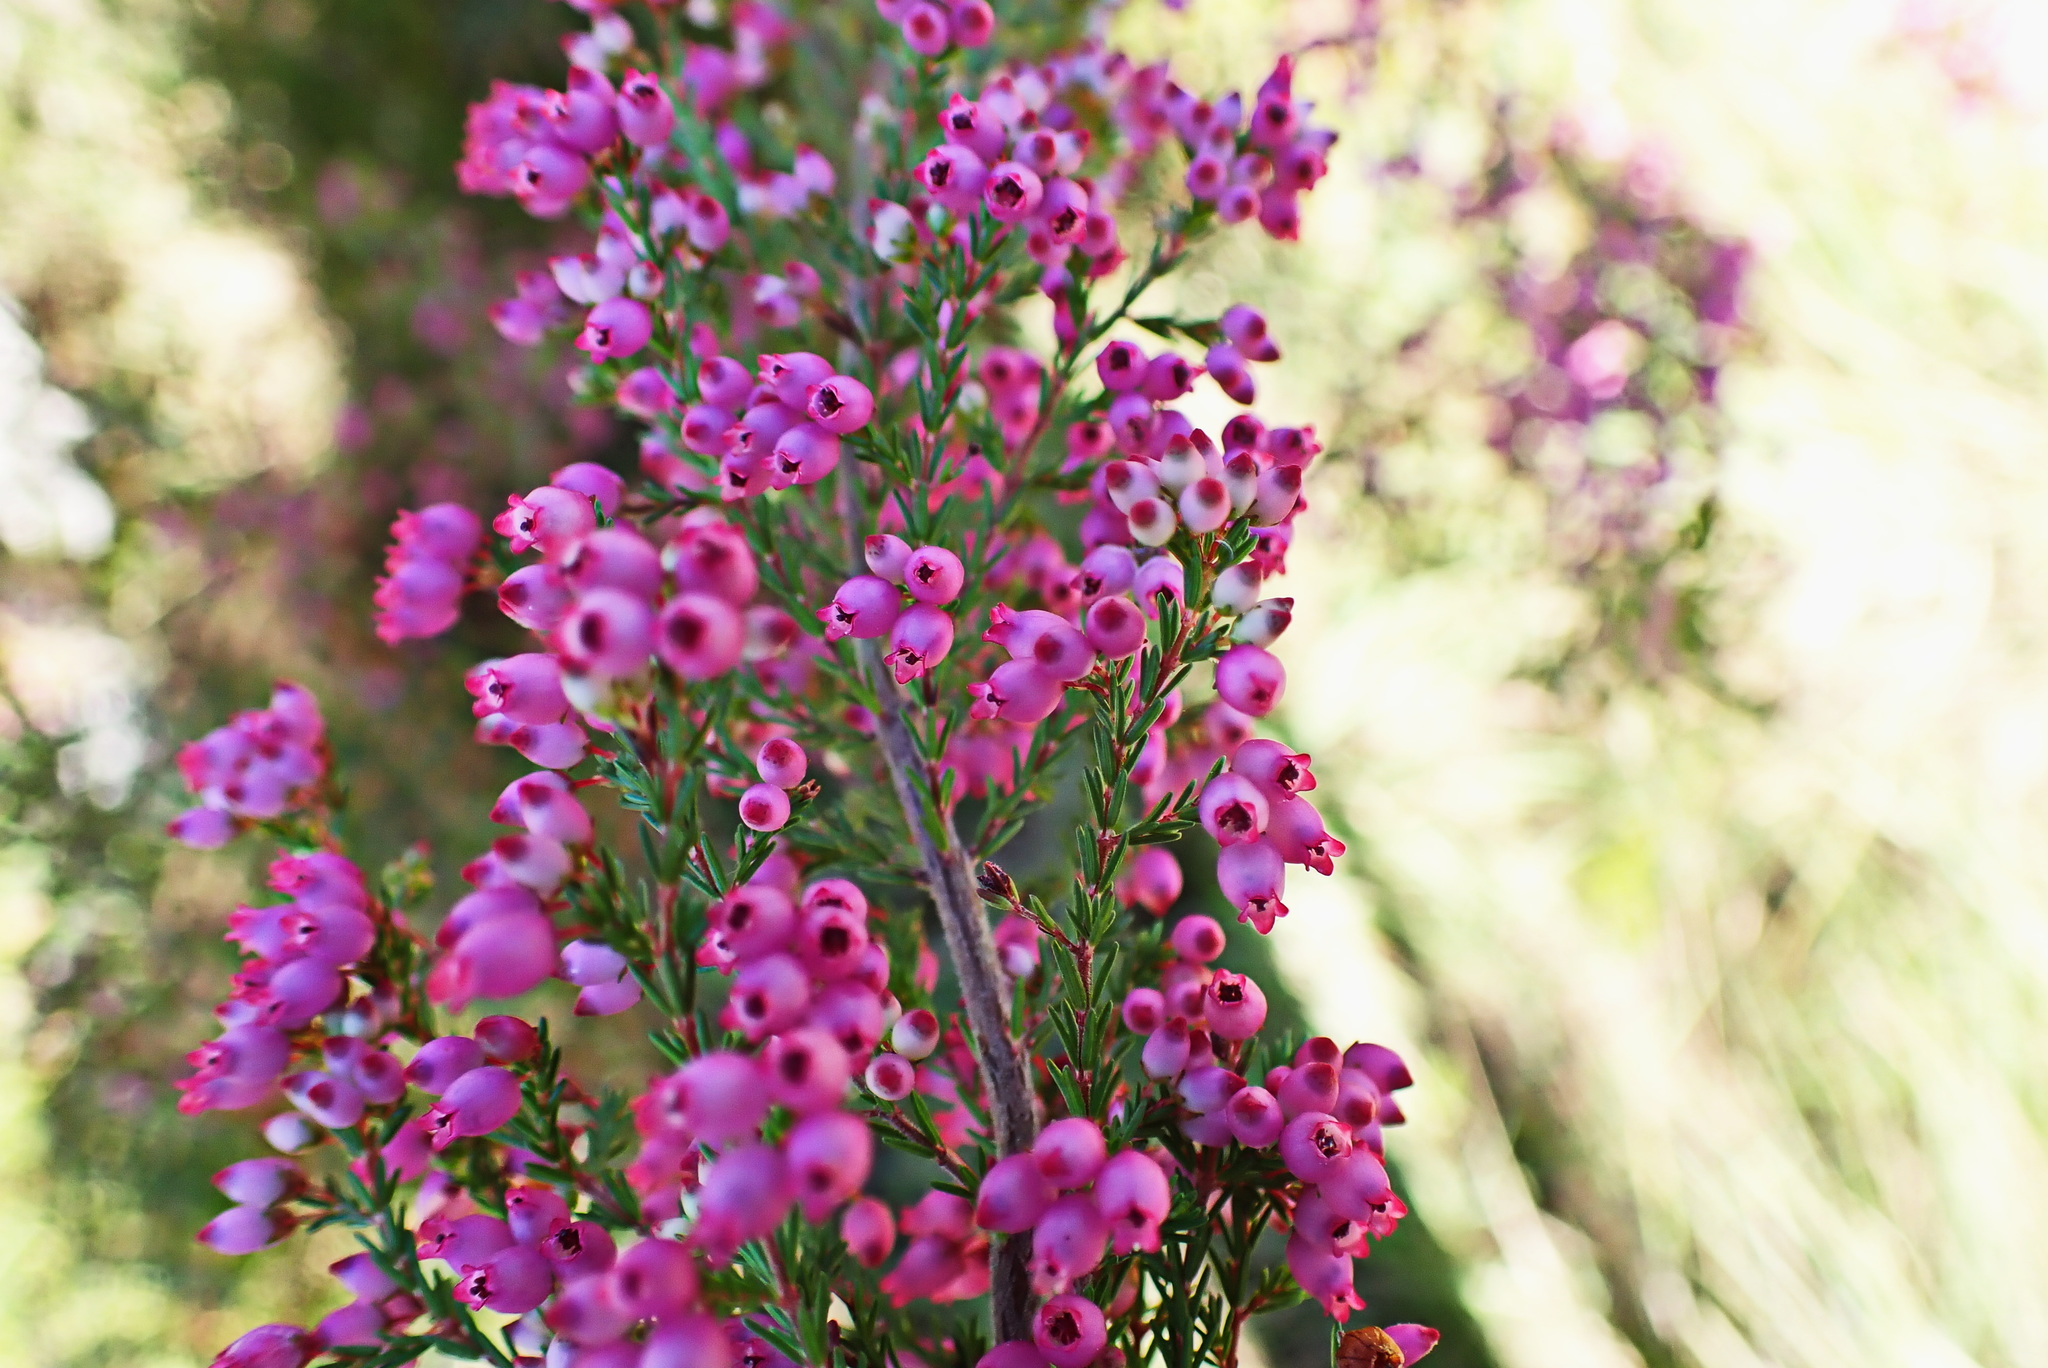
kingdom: Plantae
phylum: Tracheophyta
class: Magnoliopsida
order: Ericales
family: Ericaceae
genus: Erica
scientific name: Erica gracilis
